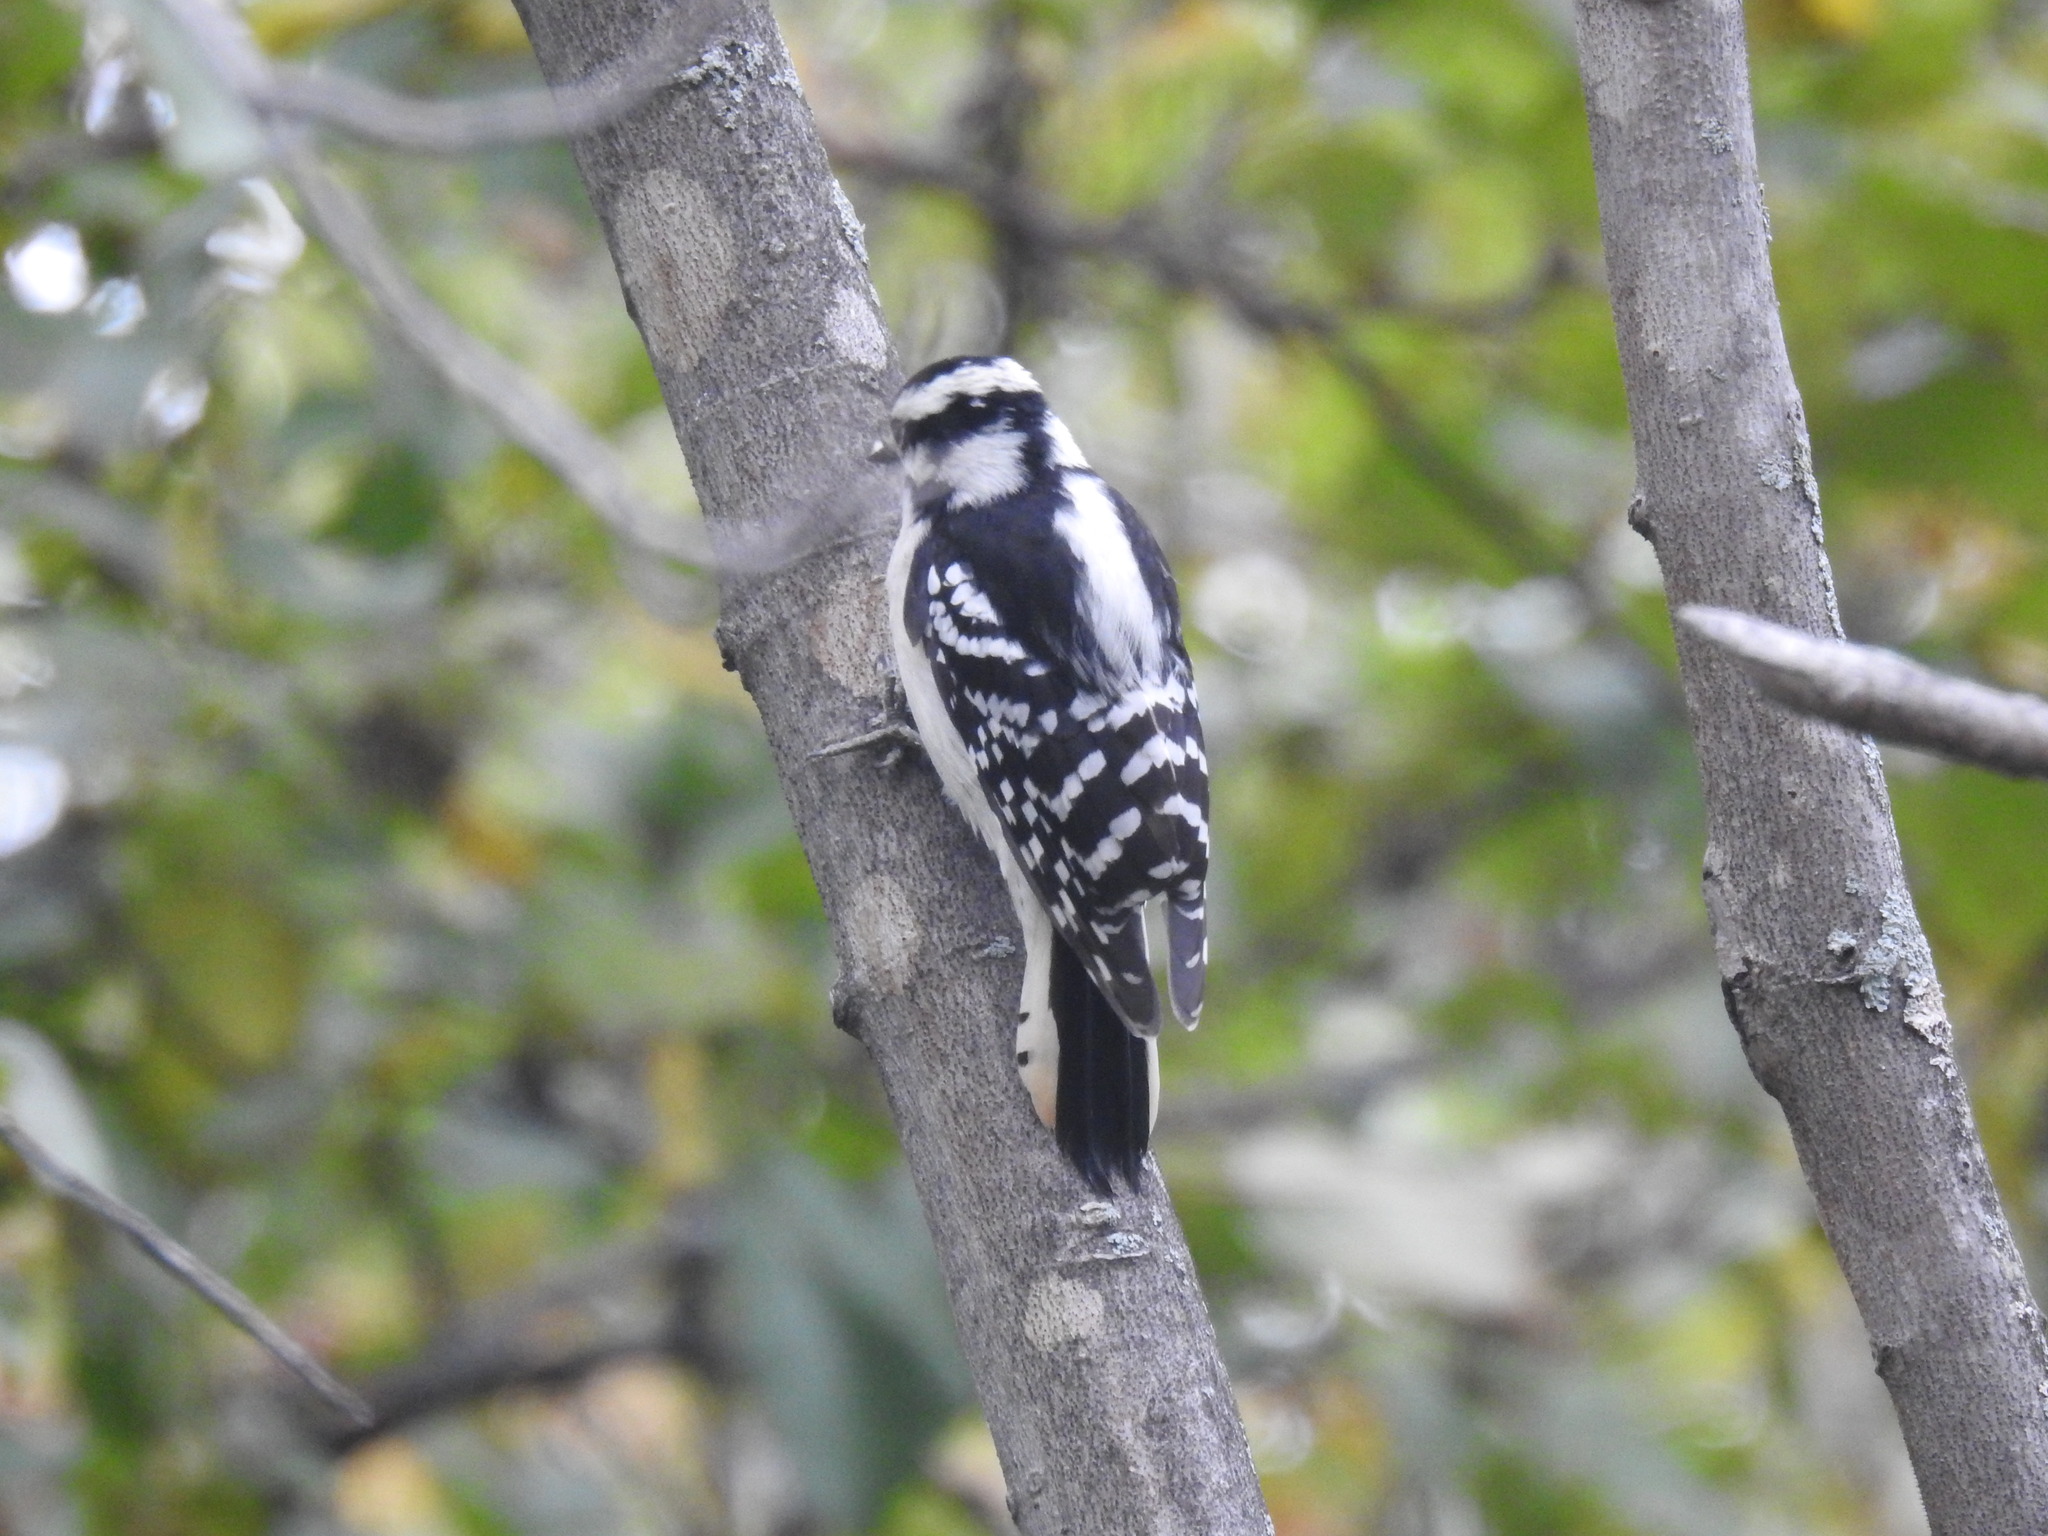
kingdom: Animalia
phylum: Chordata
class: Aves
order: Piciformes
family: Picidae
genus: Dryobates
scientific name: Dryobates pubescens
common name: Downy woodpecker
